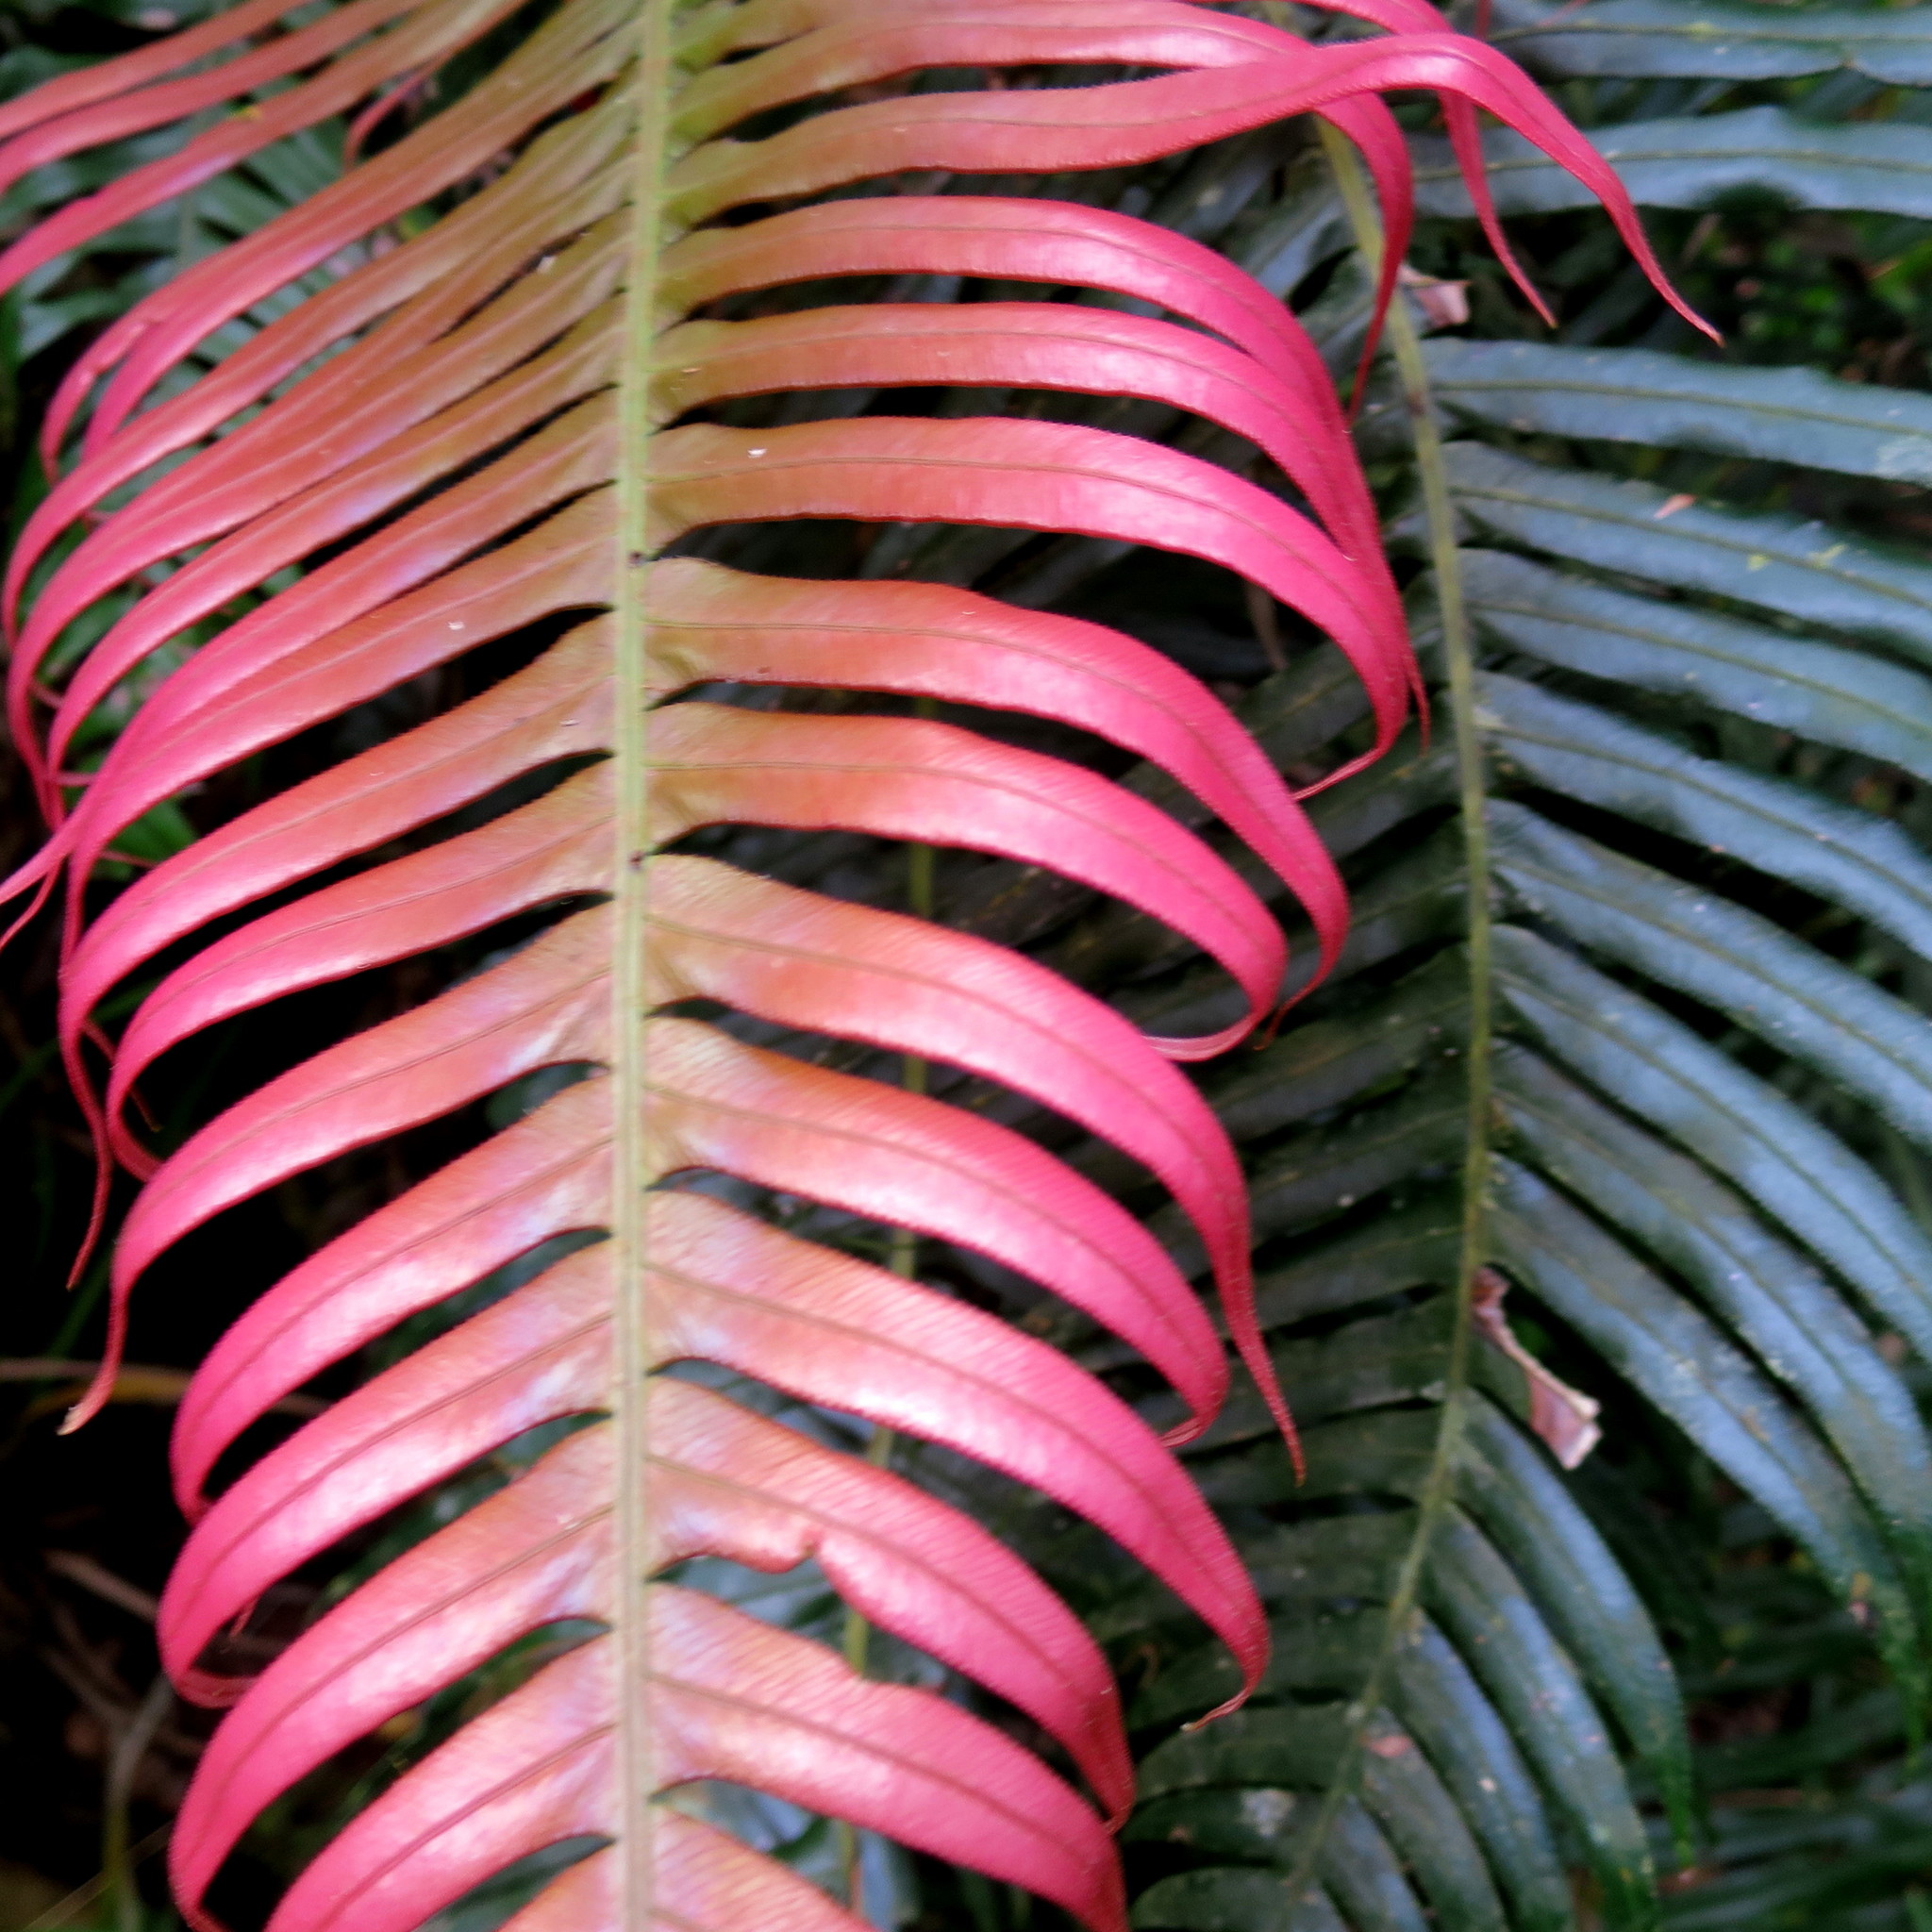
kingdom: Plantae
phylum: Tracheophyta
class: Polypodiopsida
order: Polypodiales
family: Blechnaceae
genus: Lomaridium
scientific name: Lomaridium attenuatum
